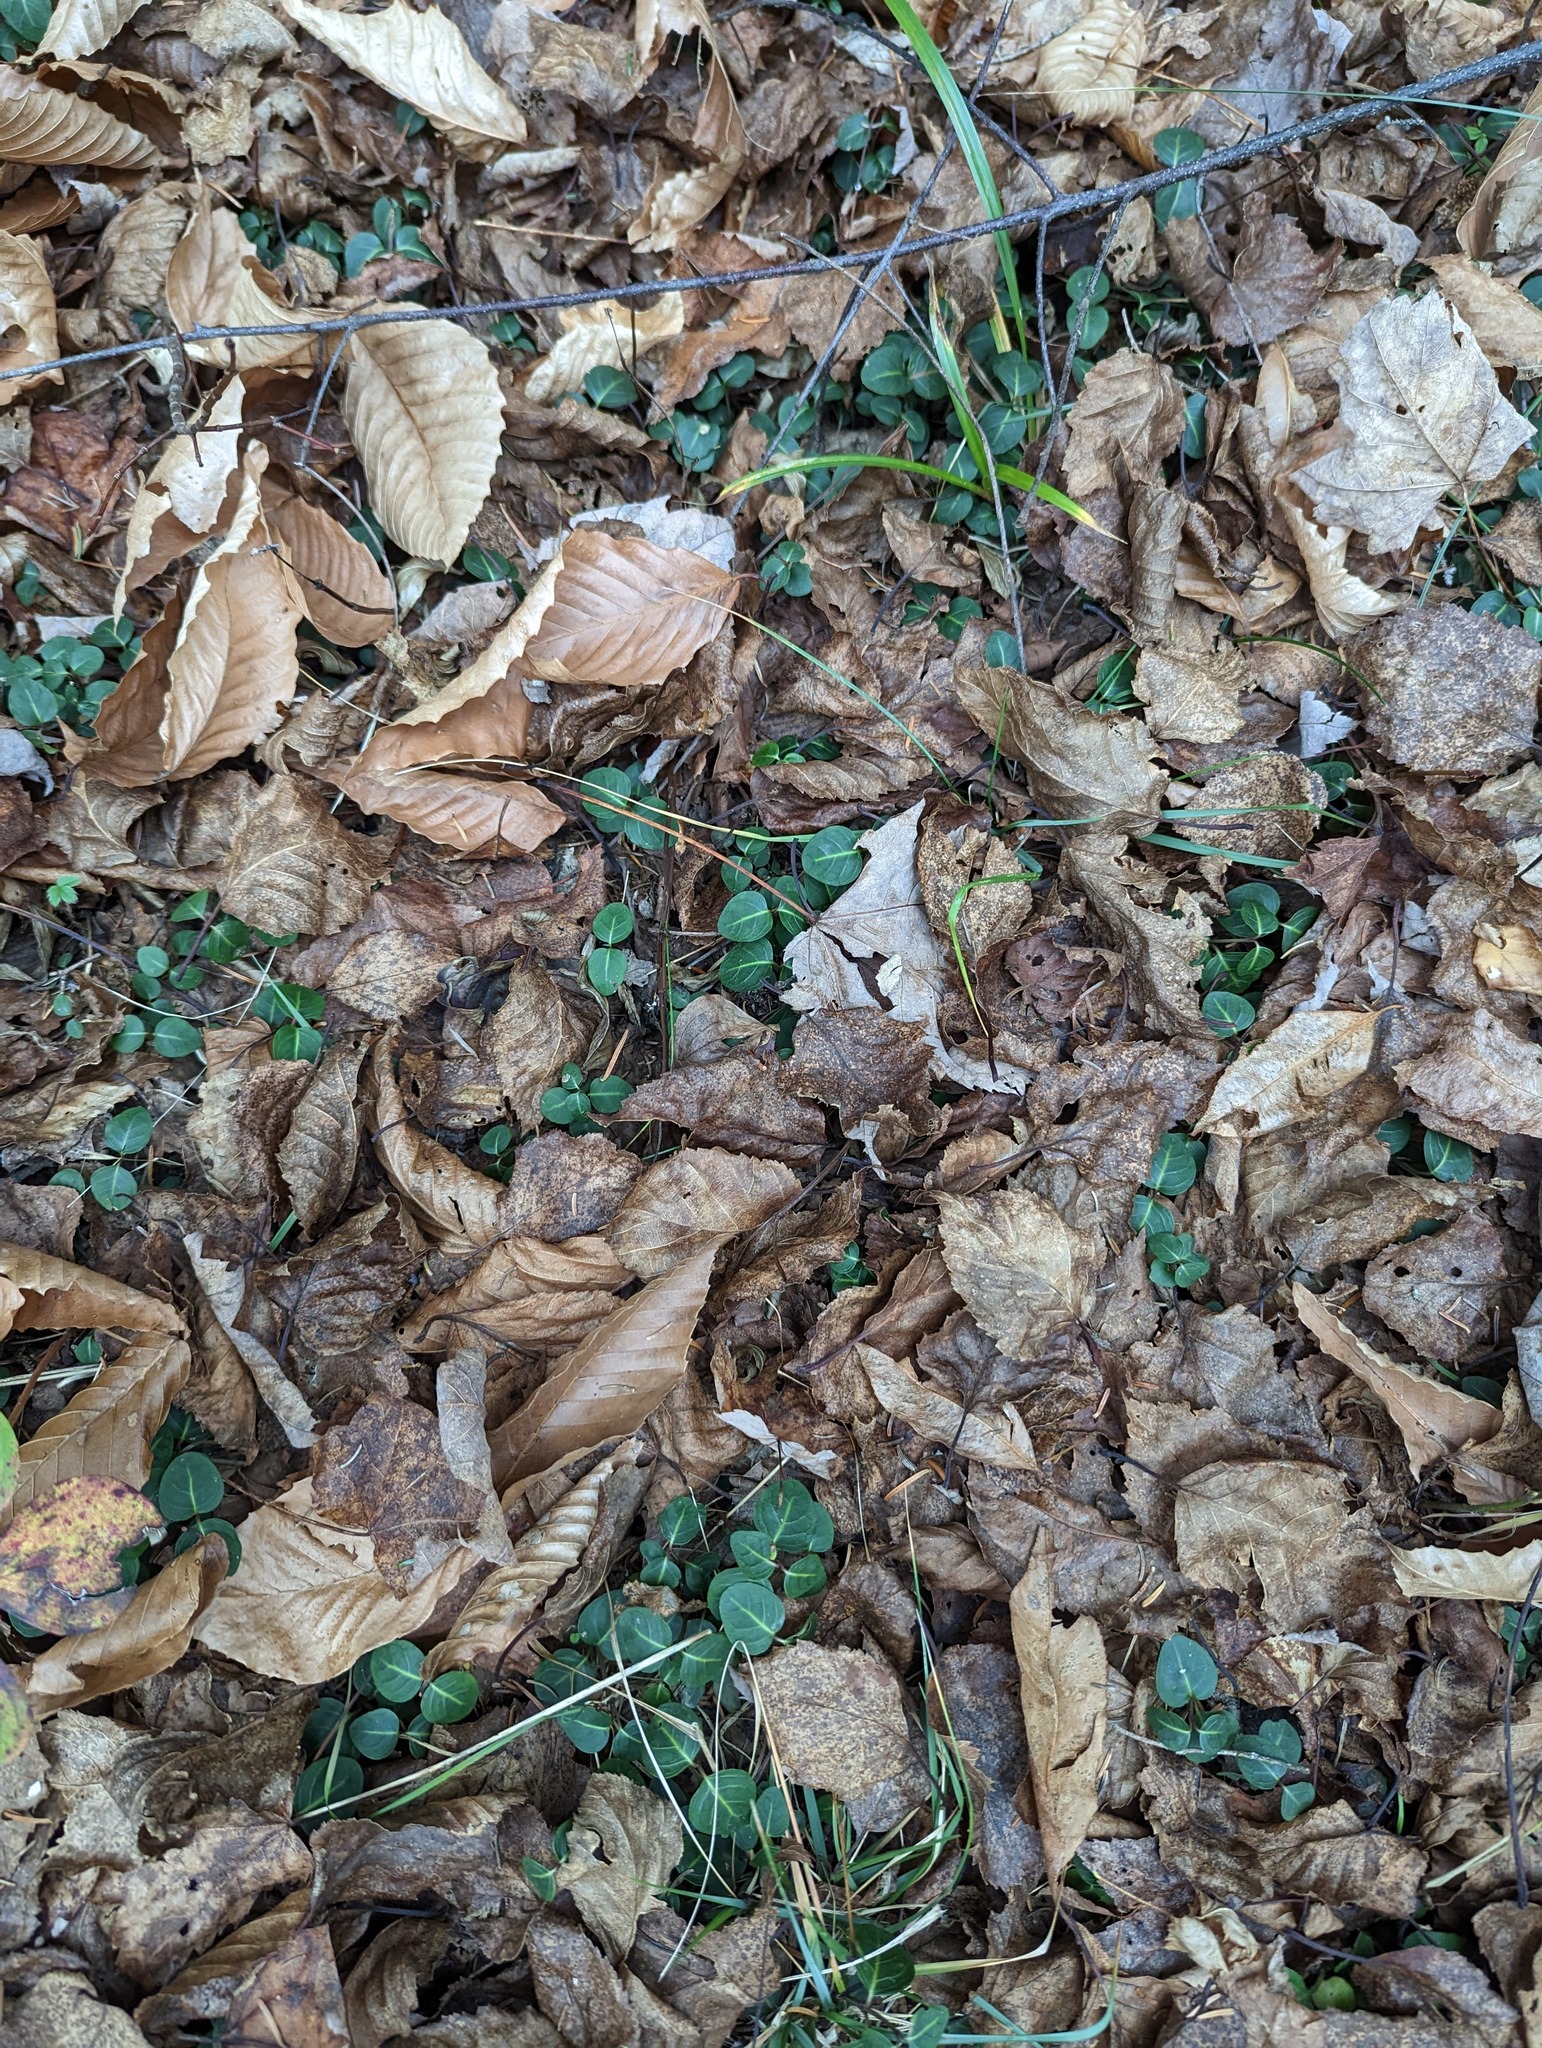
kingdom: Plantae
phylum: Tracheophyta
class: Magnoliopsida
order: Fagales
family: Fagaceae
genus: Fagus
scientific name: Fagus grandifolia
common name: American beech
